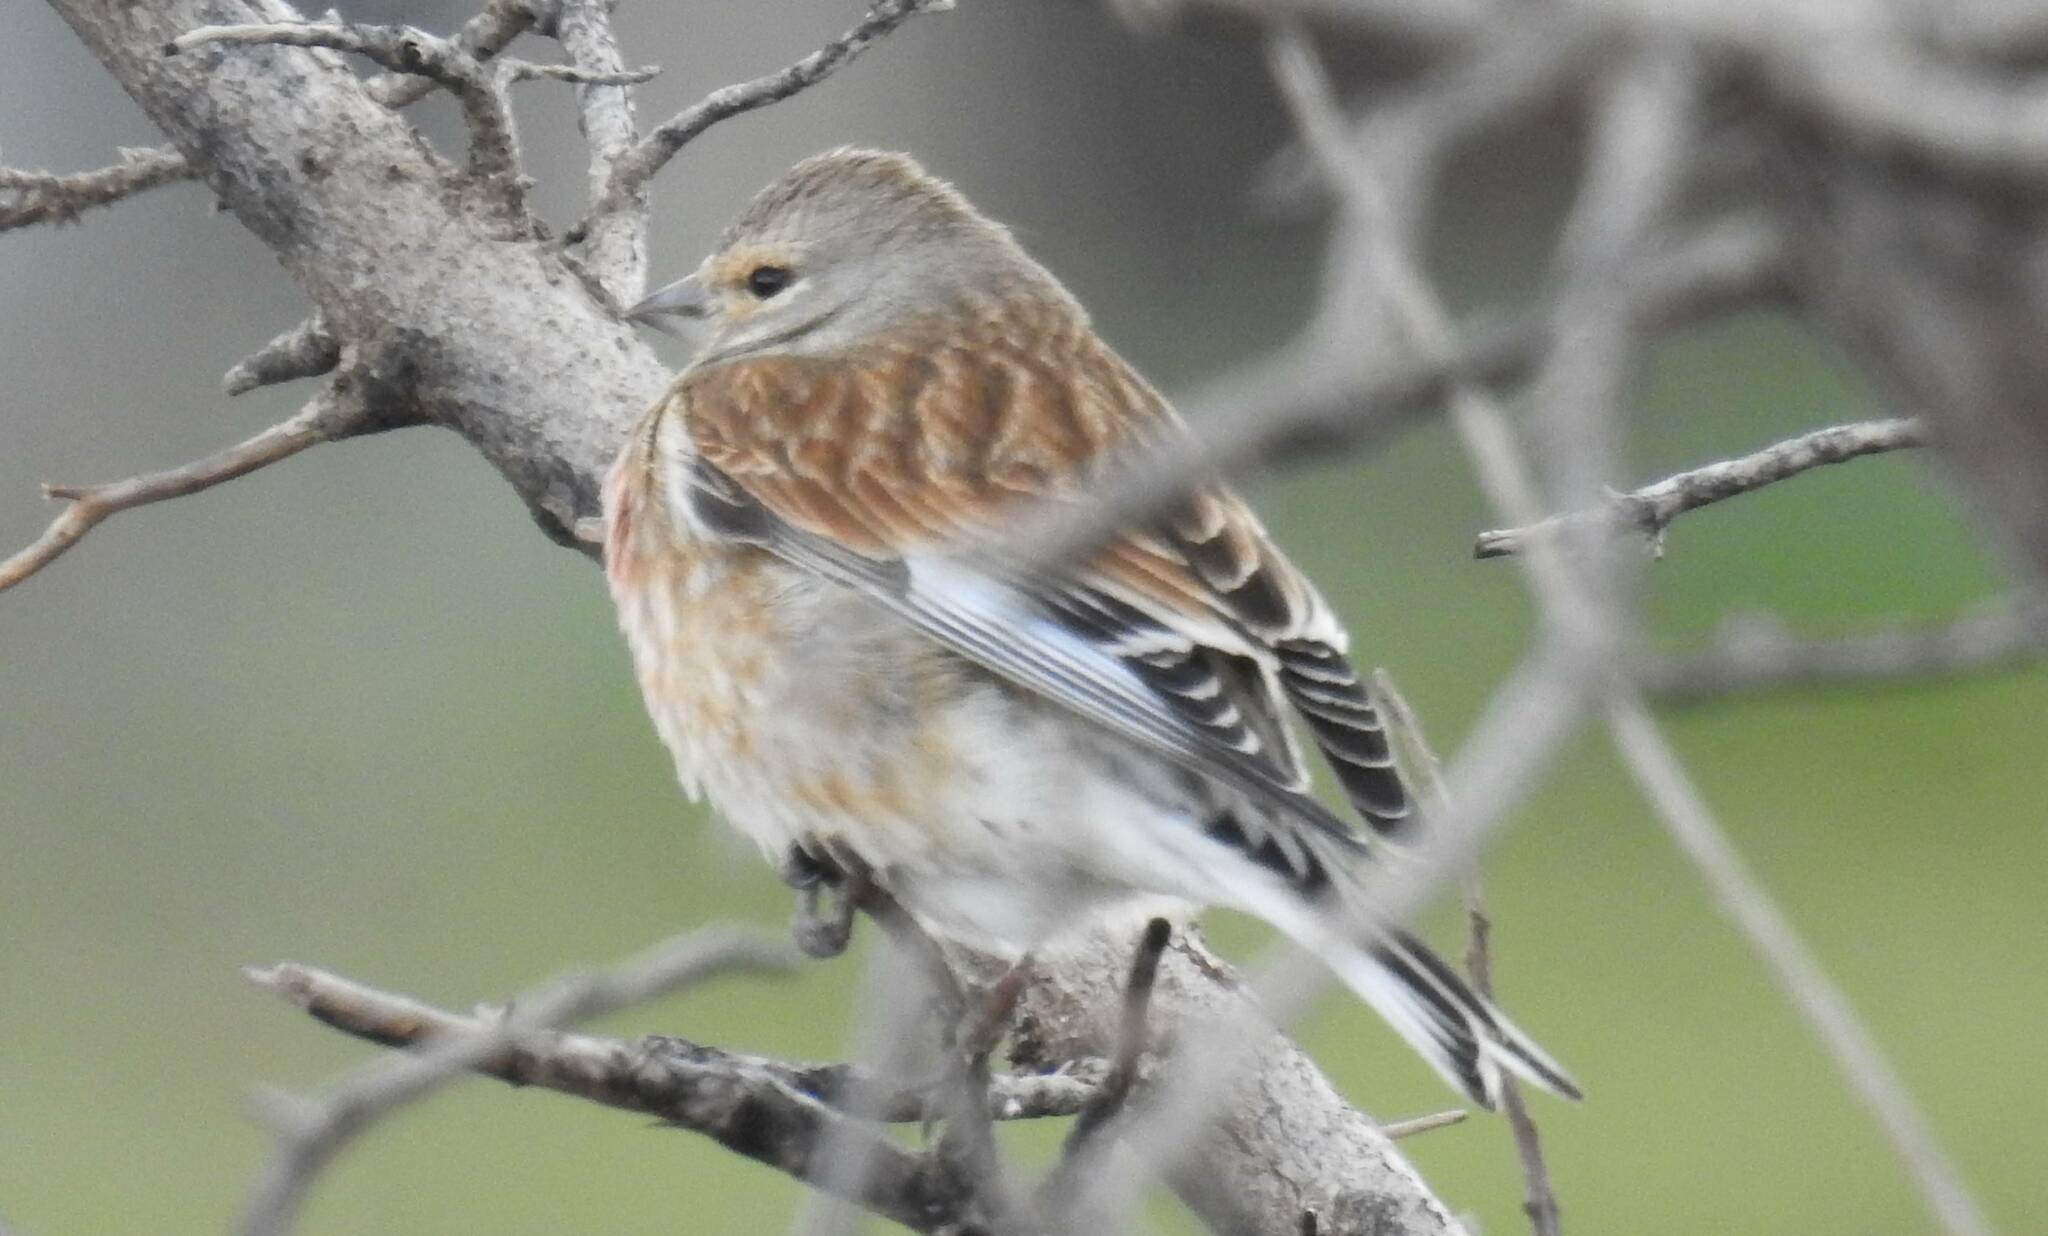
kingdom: Animalia
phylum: Chordata
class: Aves
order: Passeriformes
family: Fringillidae
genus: Linaria
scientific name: Linaria cannabina
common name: Common linnet
